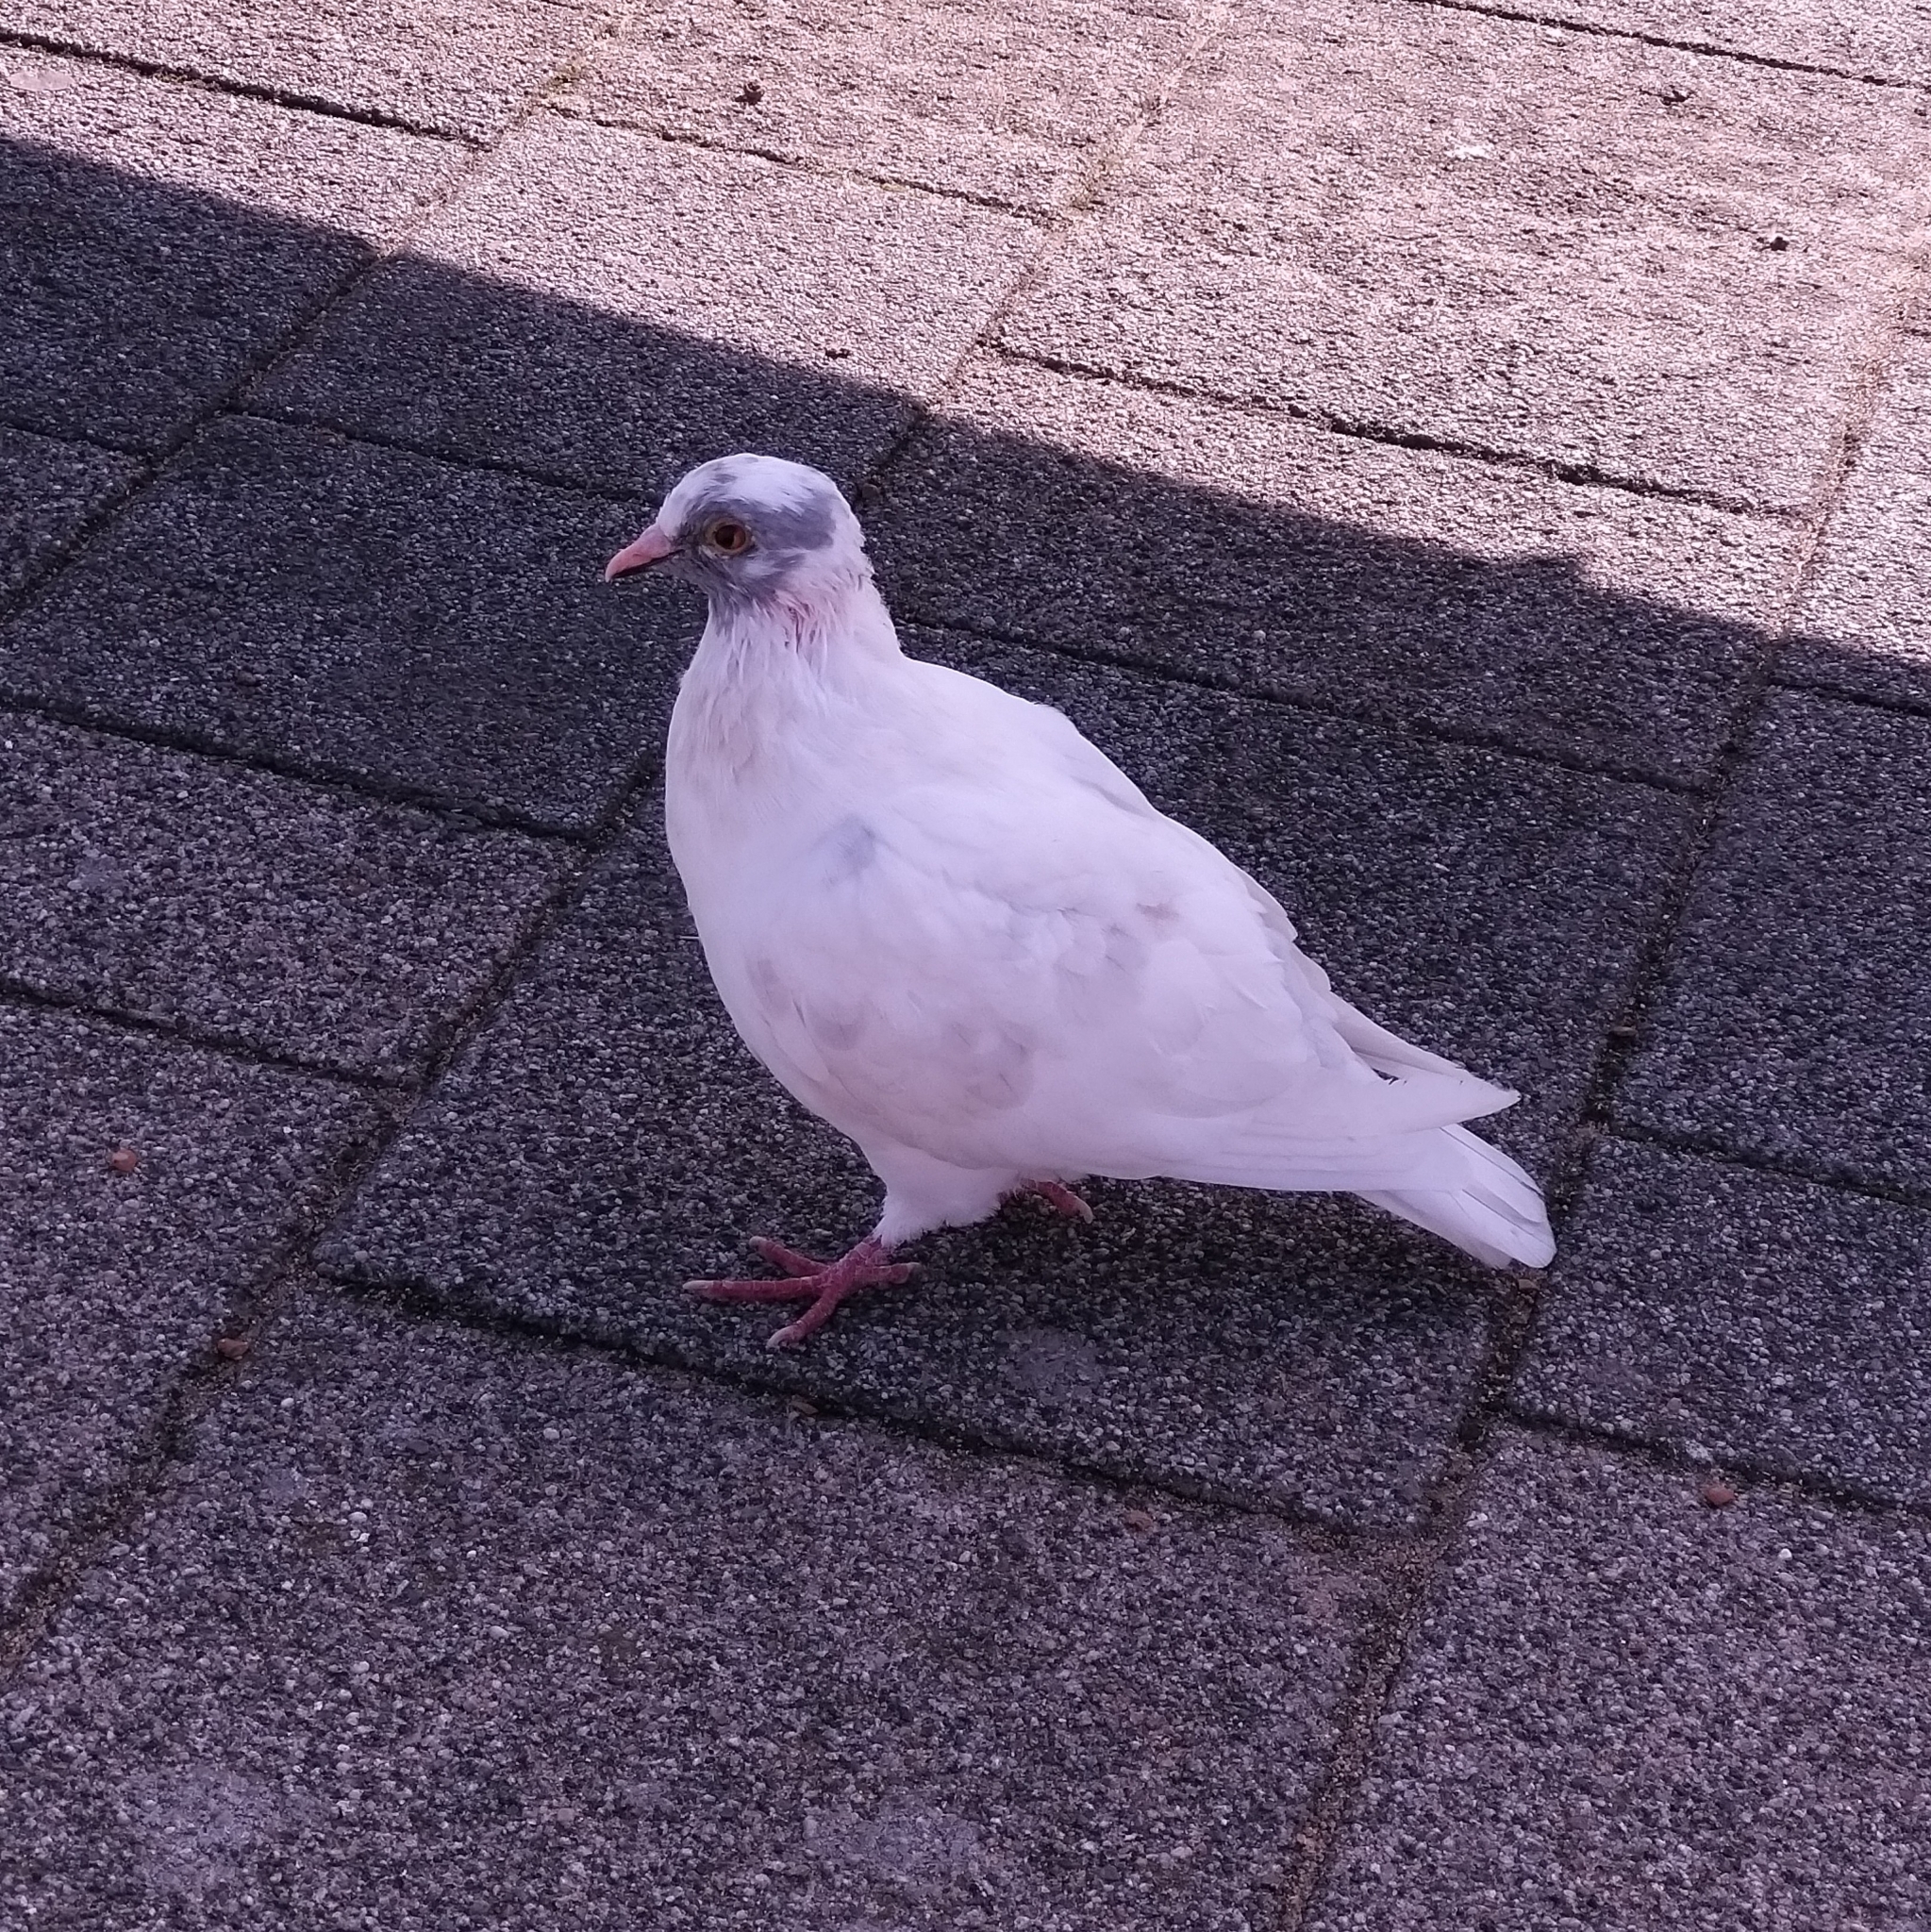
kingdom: Animalia
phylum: Chordata
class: Aves
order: Columbiformes
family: Columbidae
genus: Columba
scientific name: Columba livia
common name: Rock pigeon
